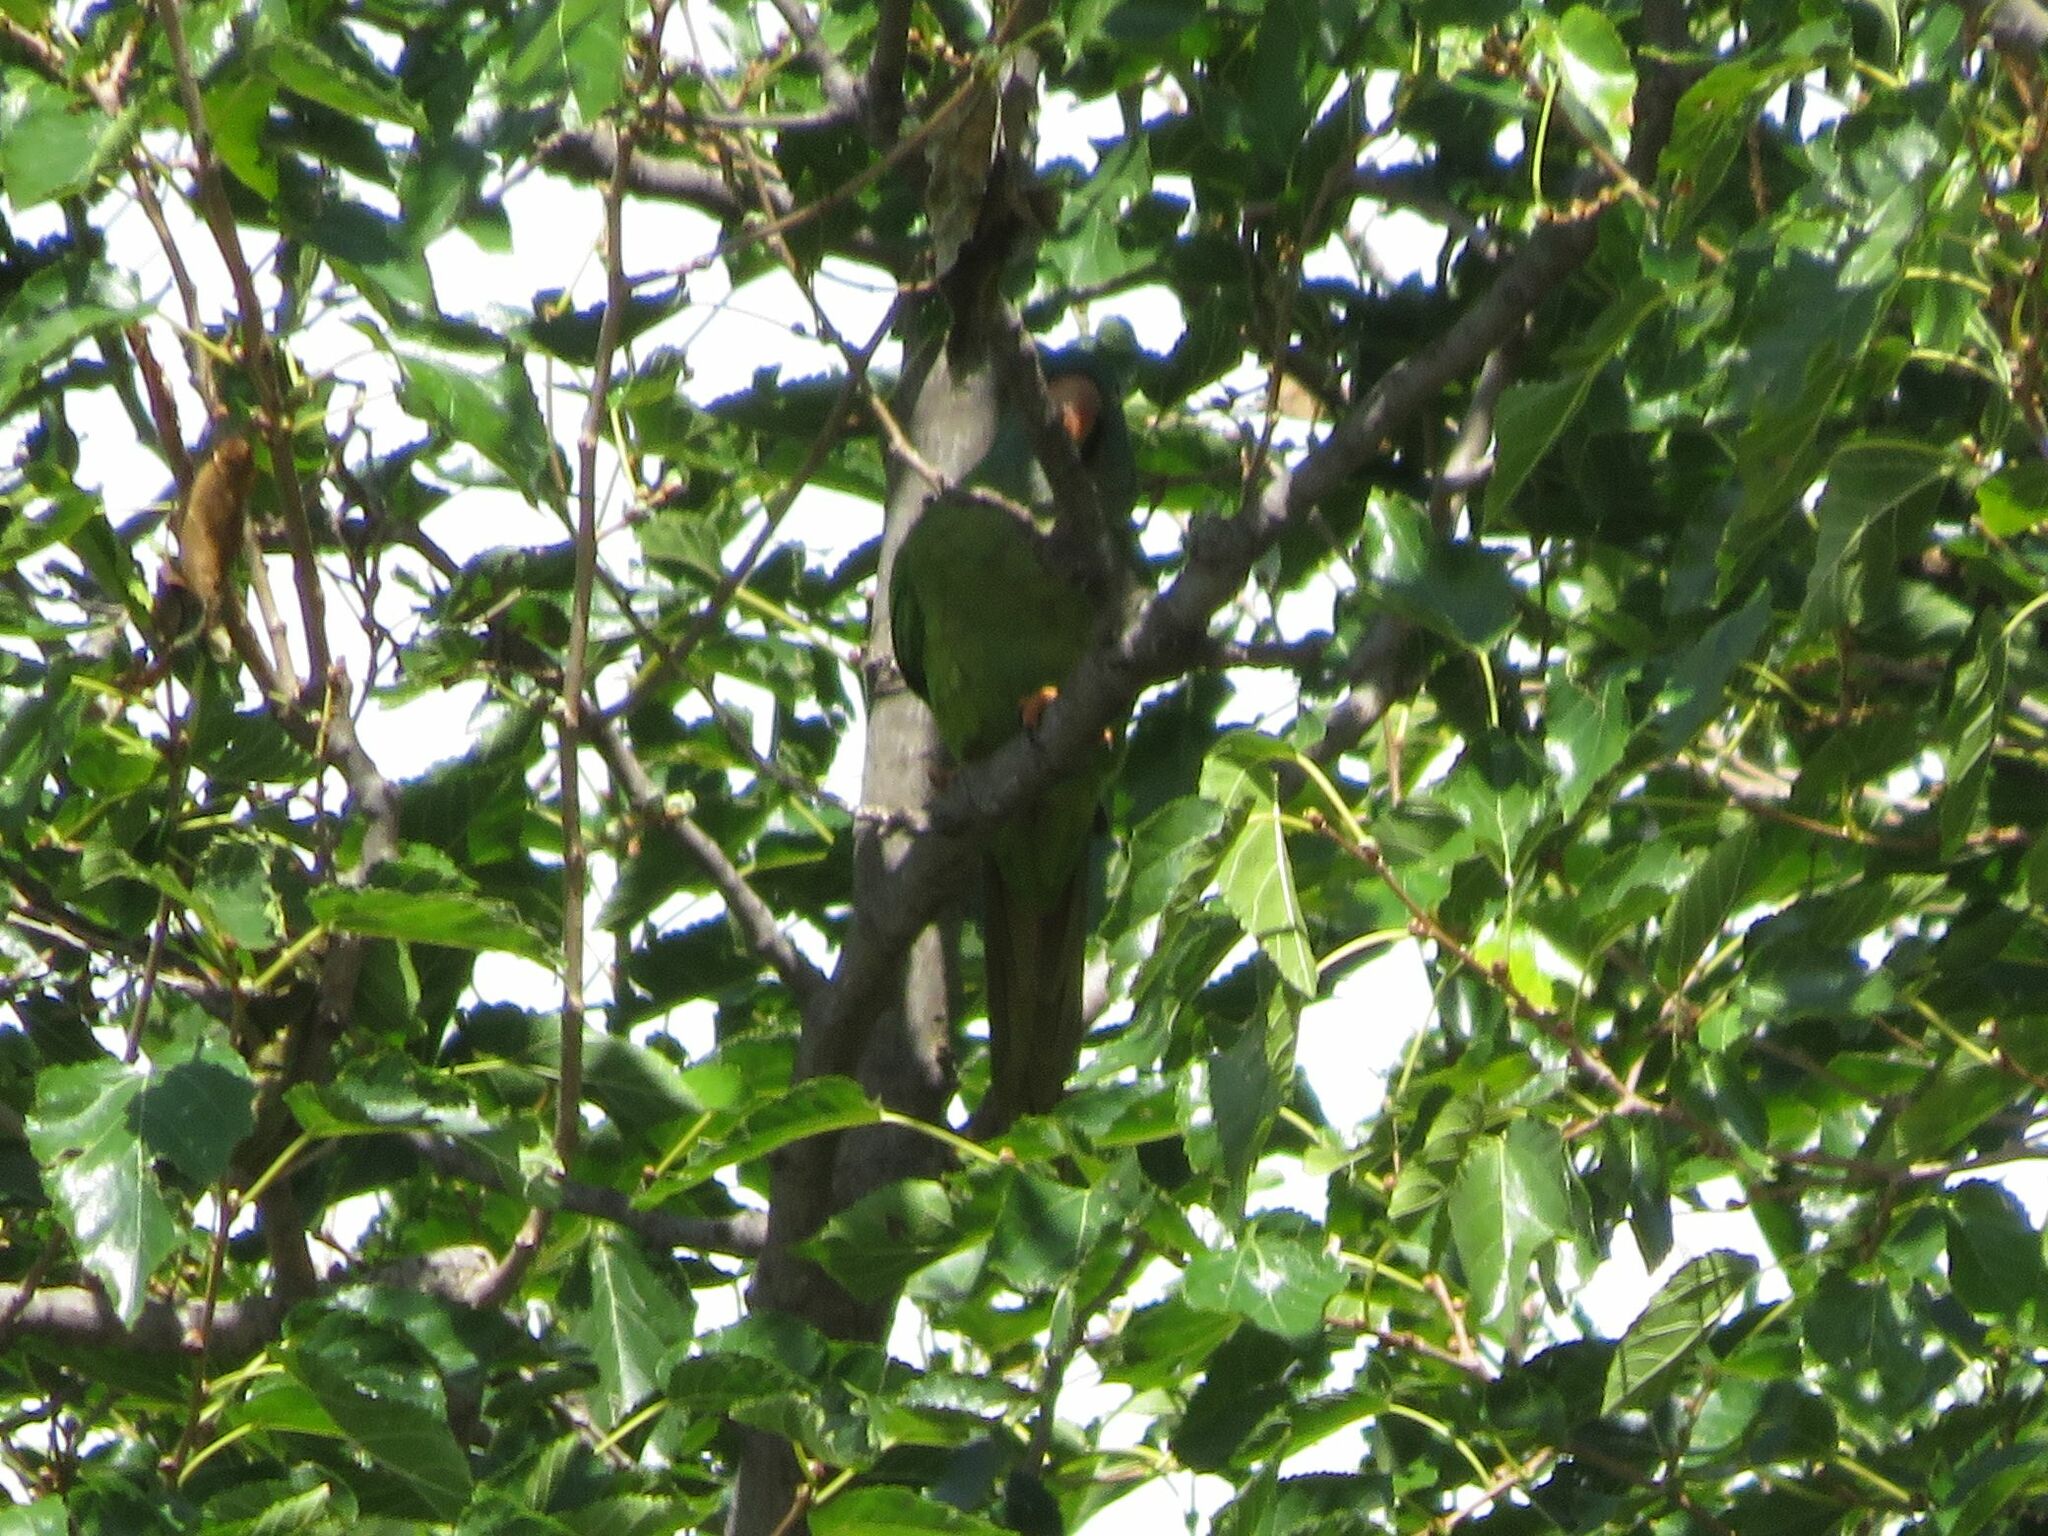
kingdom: Animalia
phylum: Chordata
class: Aves
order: Psittaciformes
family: Psittacidae
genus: Aratinga
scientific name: Aratinga acuticaudata
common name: Blue-crowned parakeet
